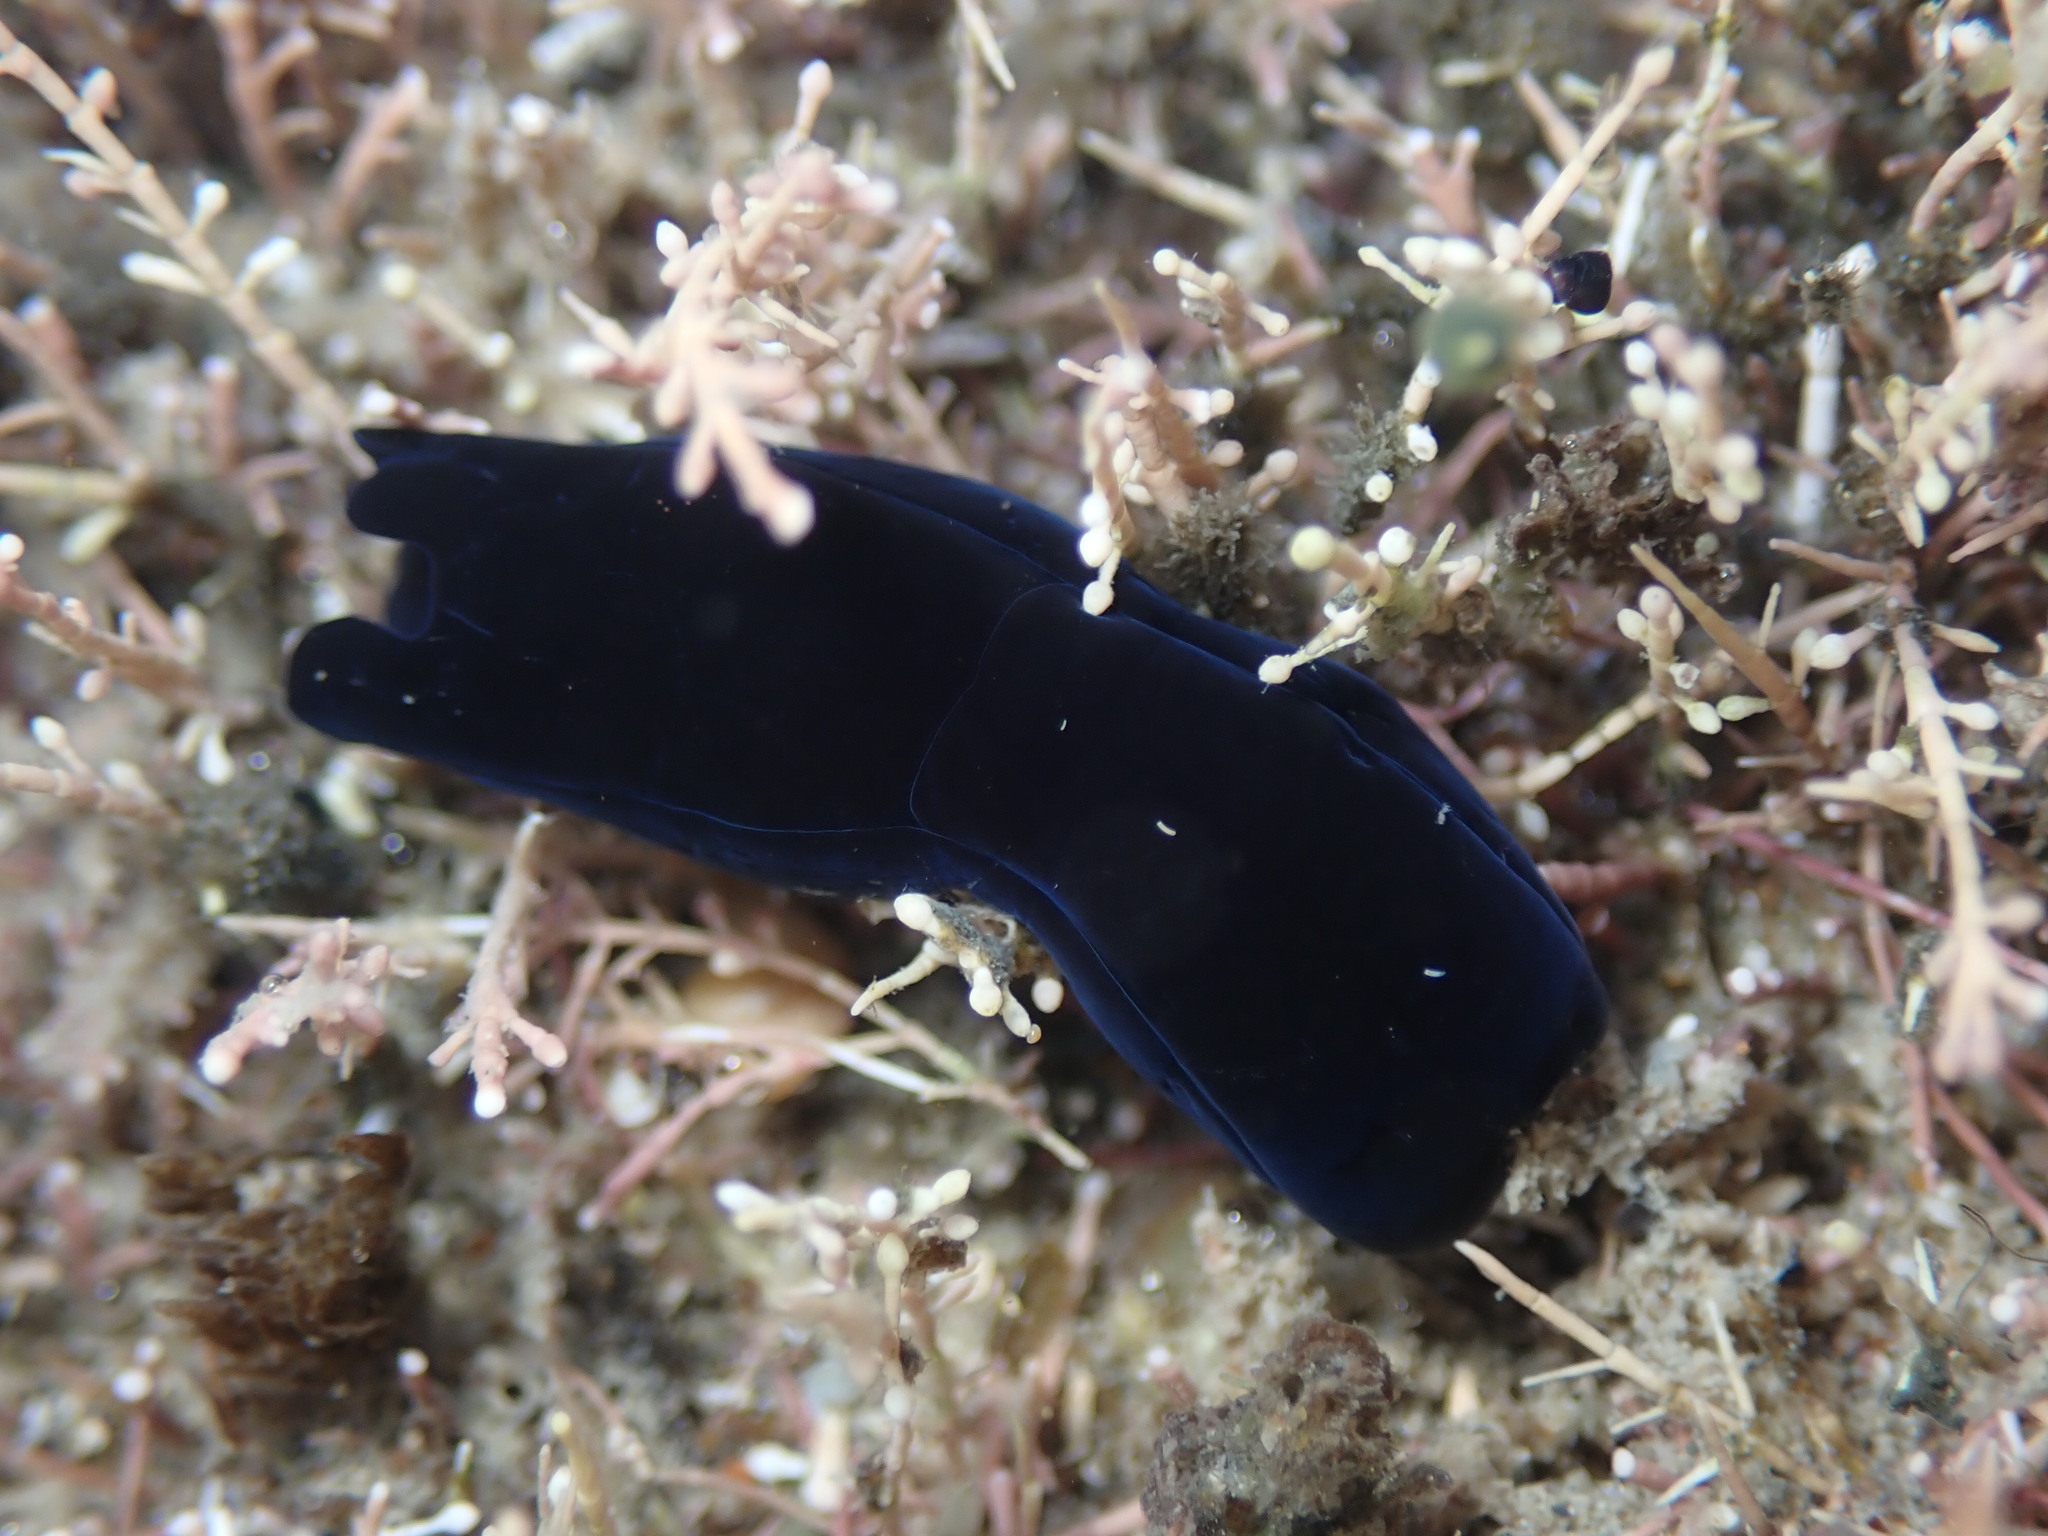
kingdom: Animalia
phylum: Mollusca
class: Gastropoda
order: Cephalaspidea
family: Aglajidae
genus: Melanochlamys
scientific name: Melanochlamys cylindrica
